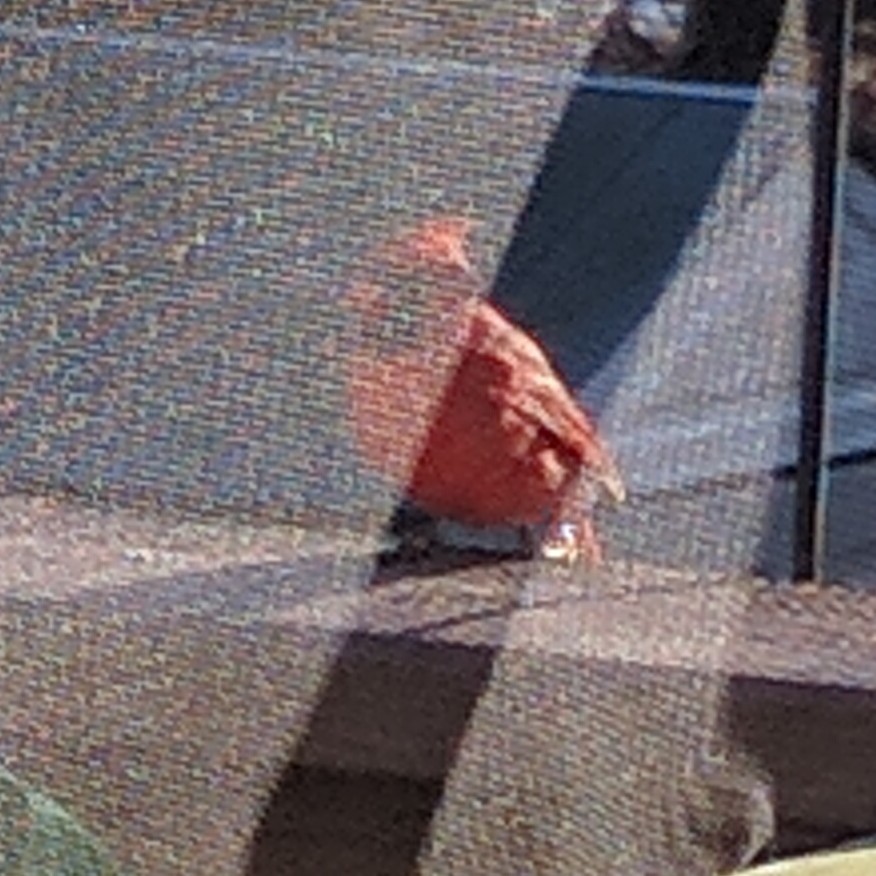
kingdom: Animalia
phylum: Chordata
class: Aves
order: Passeriformes
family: Cardinalidae
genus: Cardinalis
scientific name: Cardinalis cardinalis
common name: Northern cardinal
